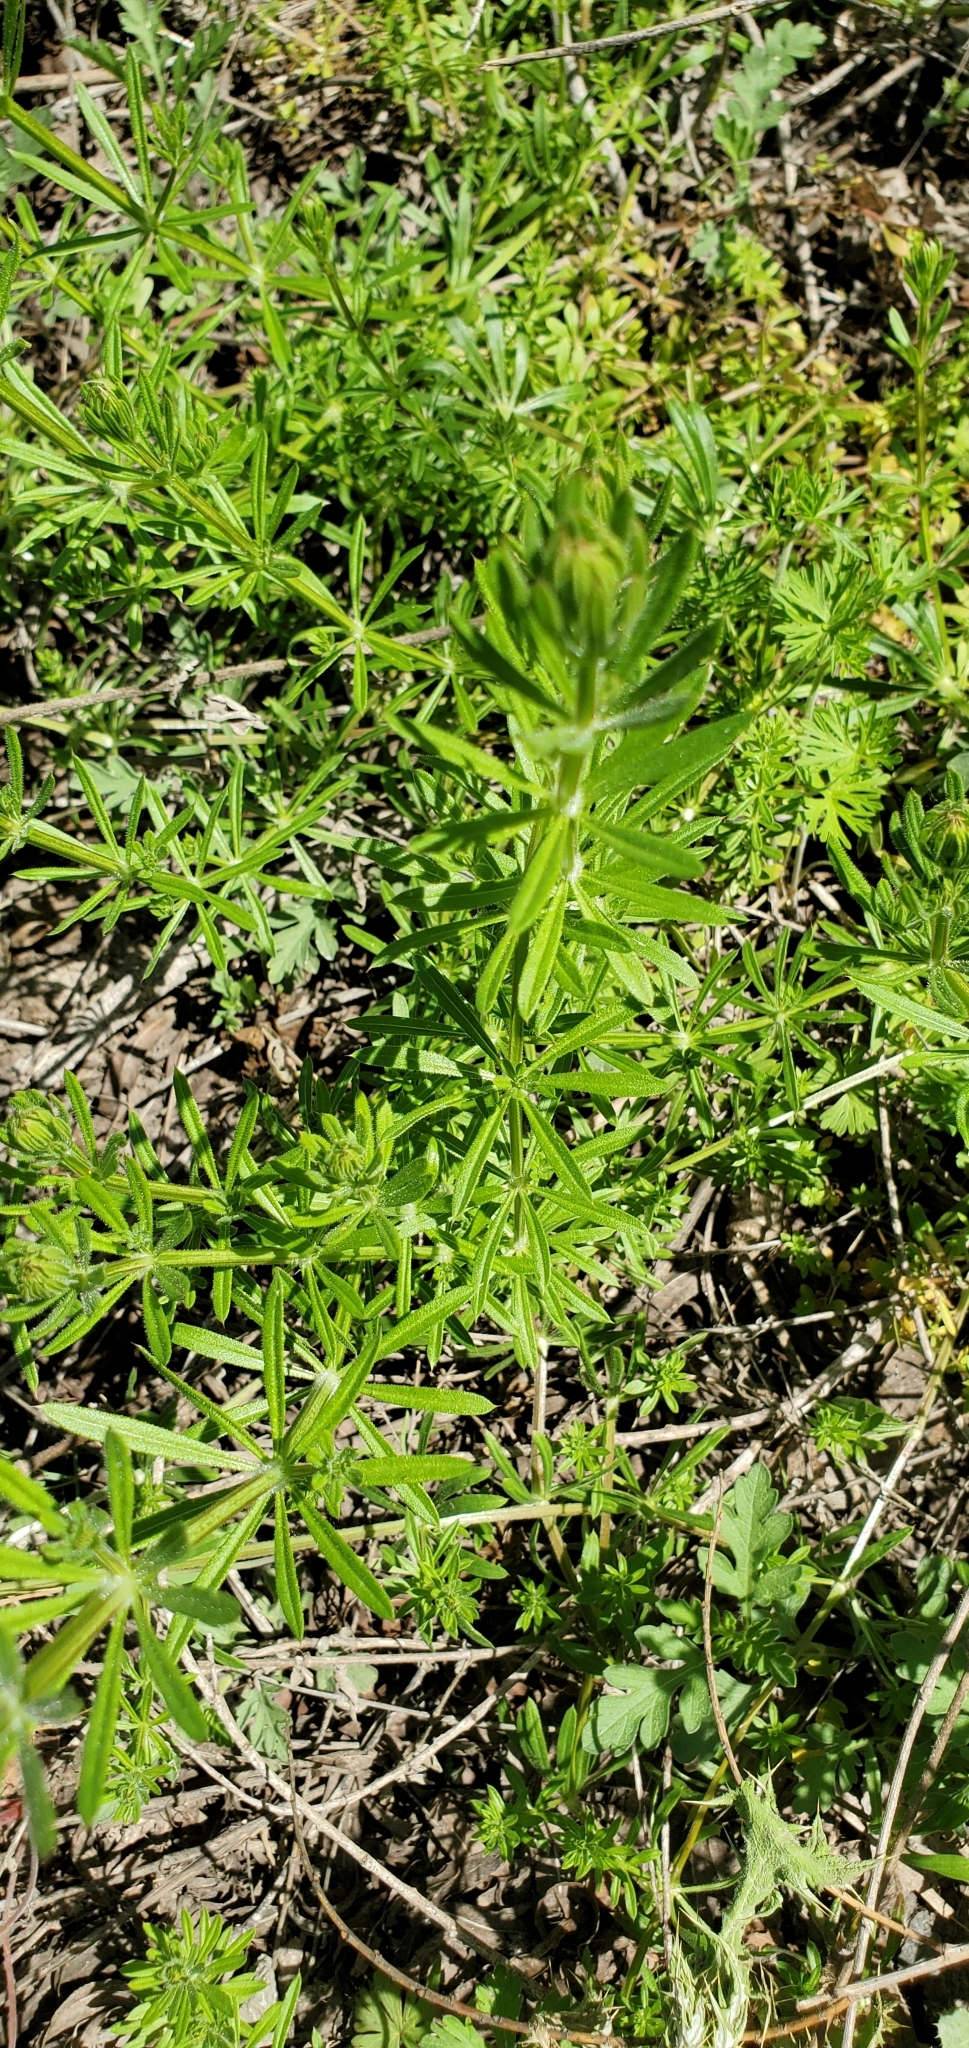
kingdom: Plantae
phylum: Tracheophyta
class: Magnoliopsida
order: Gentianales
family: Rubiaceae
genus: Galium
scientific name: Galium aparine
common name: Cleavers
